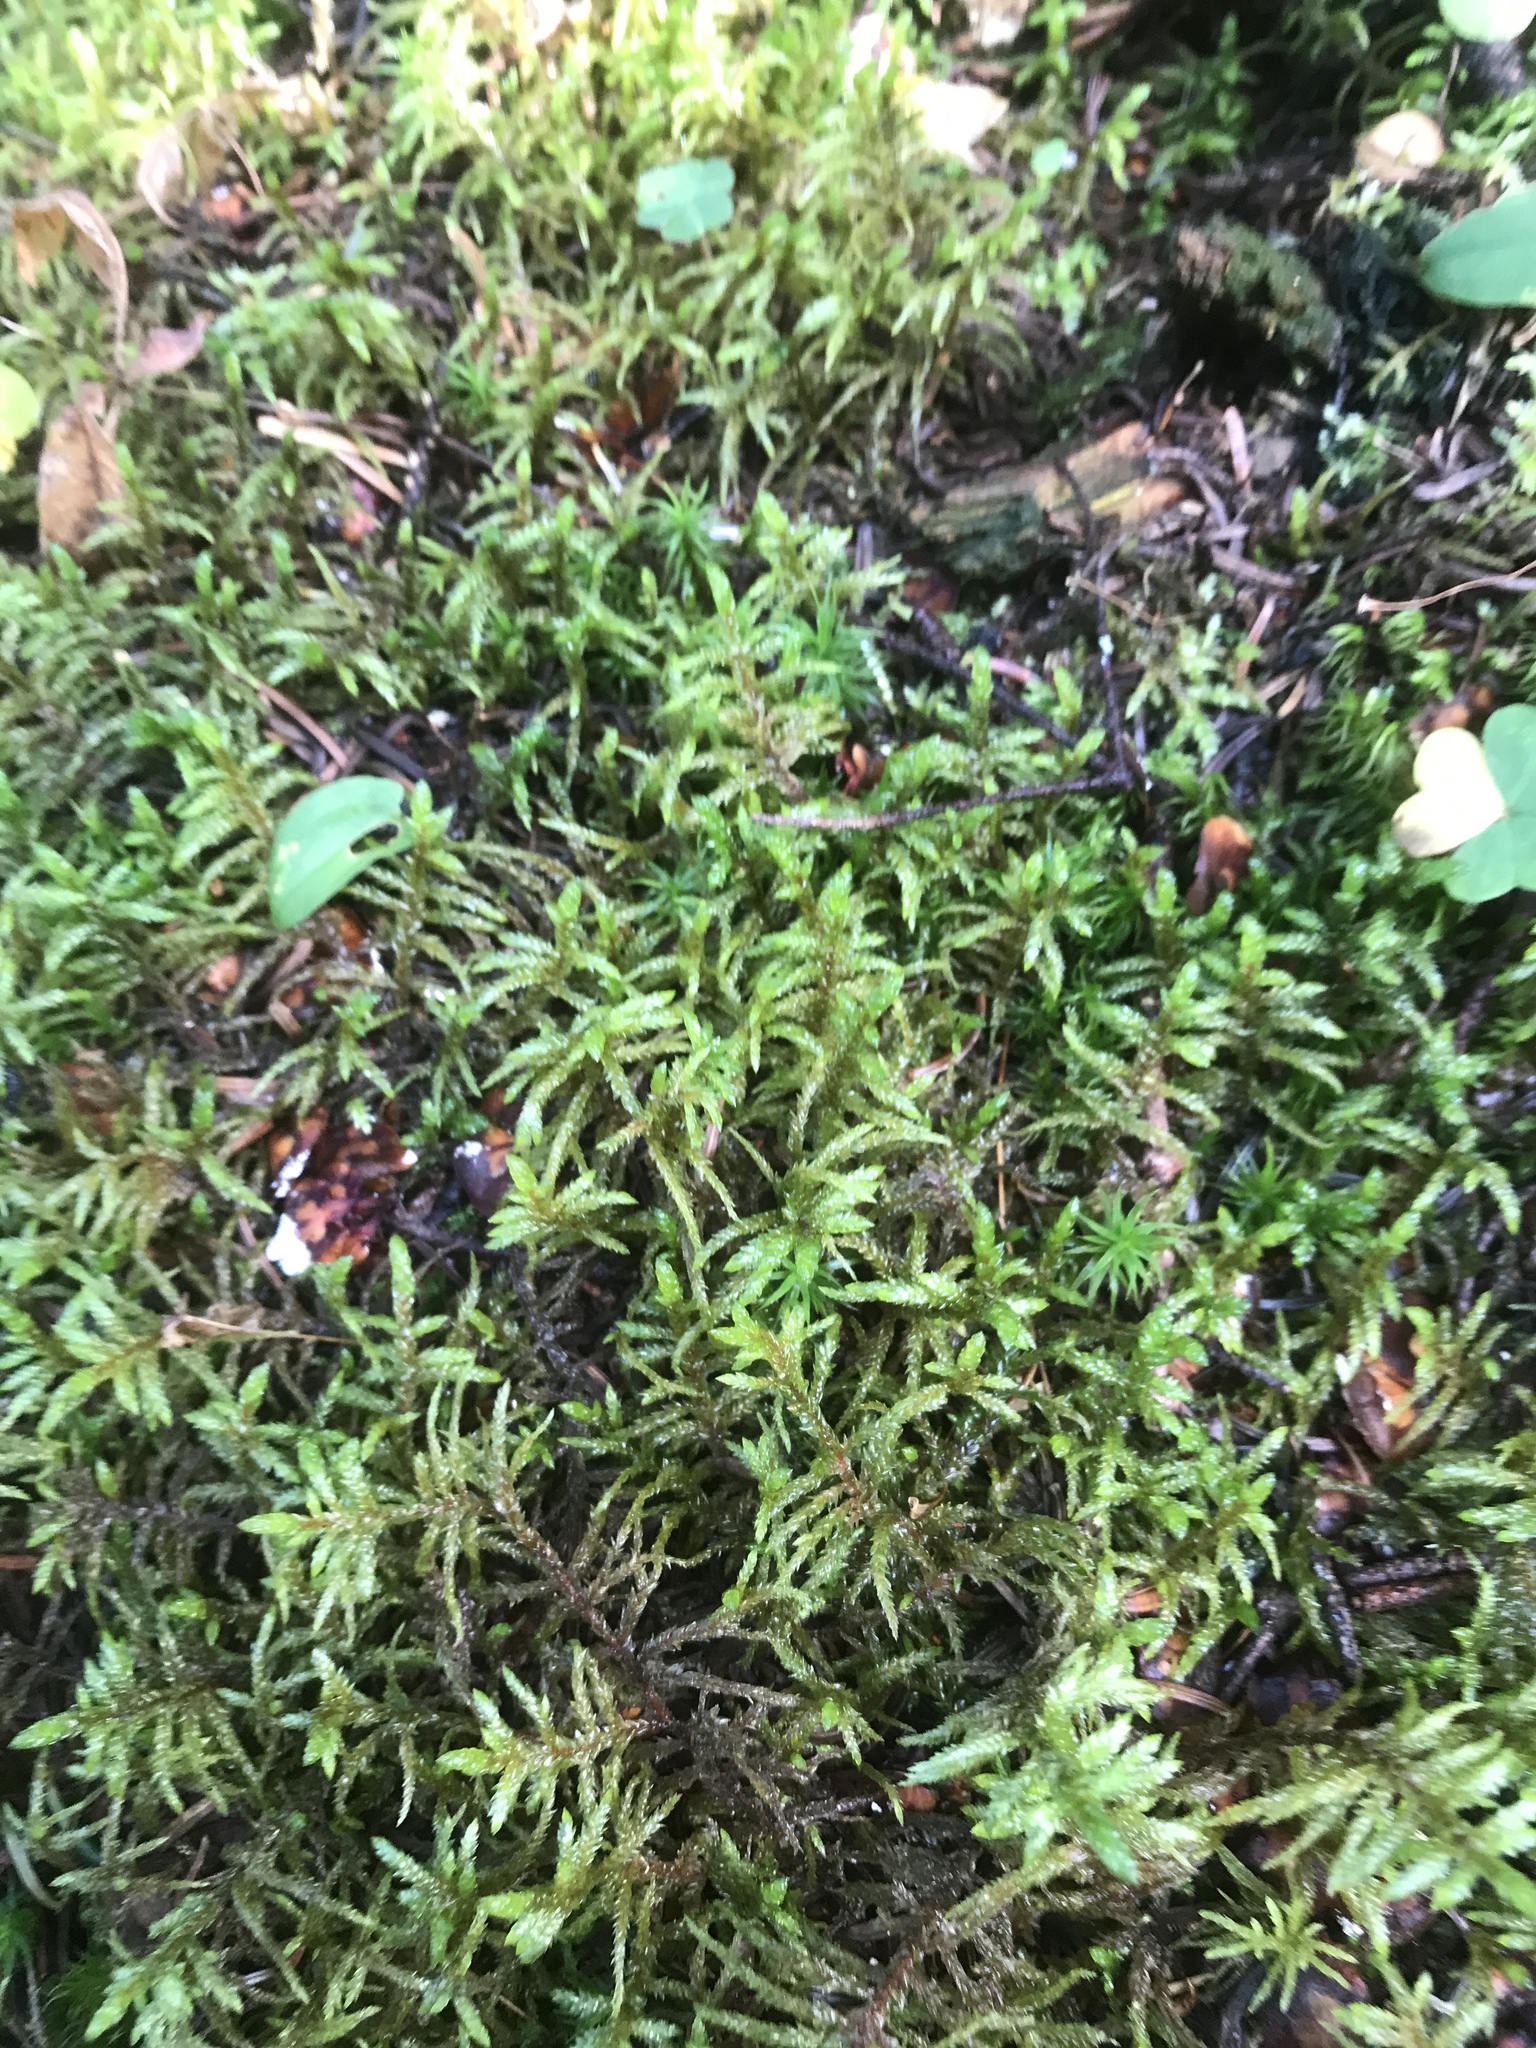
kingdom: Plantae
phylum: Bryophyta
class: Bryopsida
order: Hypnales
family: Hylocomiaceae
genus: Pleurozium
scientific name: Pleurozium schreberi
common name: Red-stemmed feather moss
